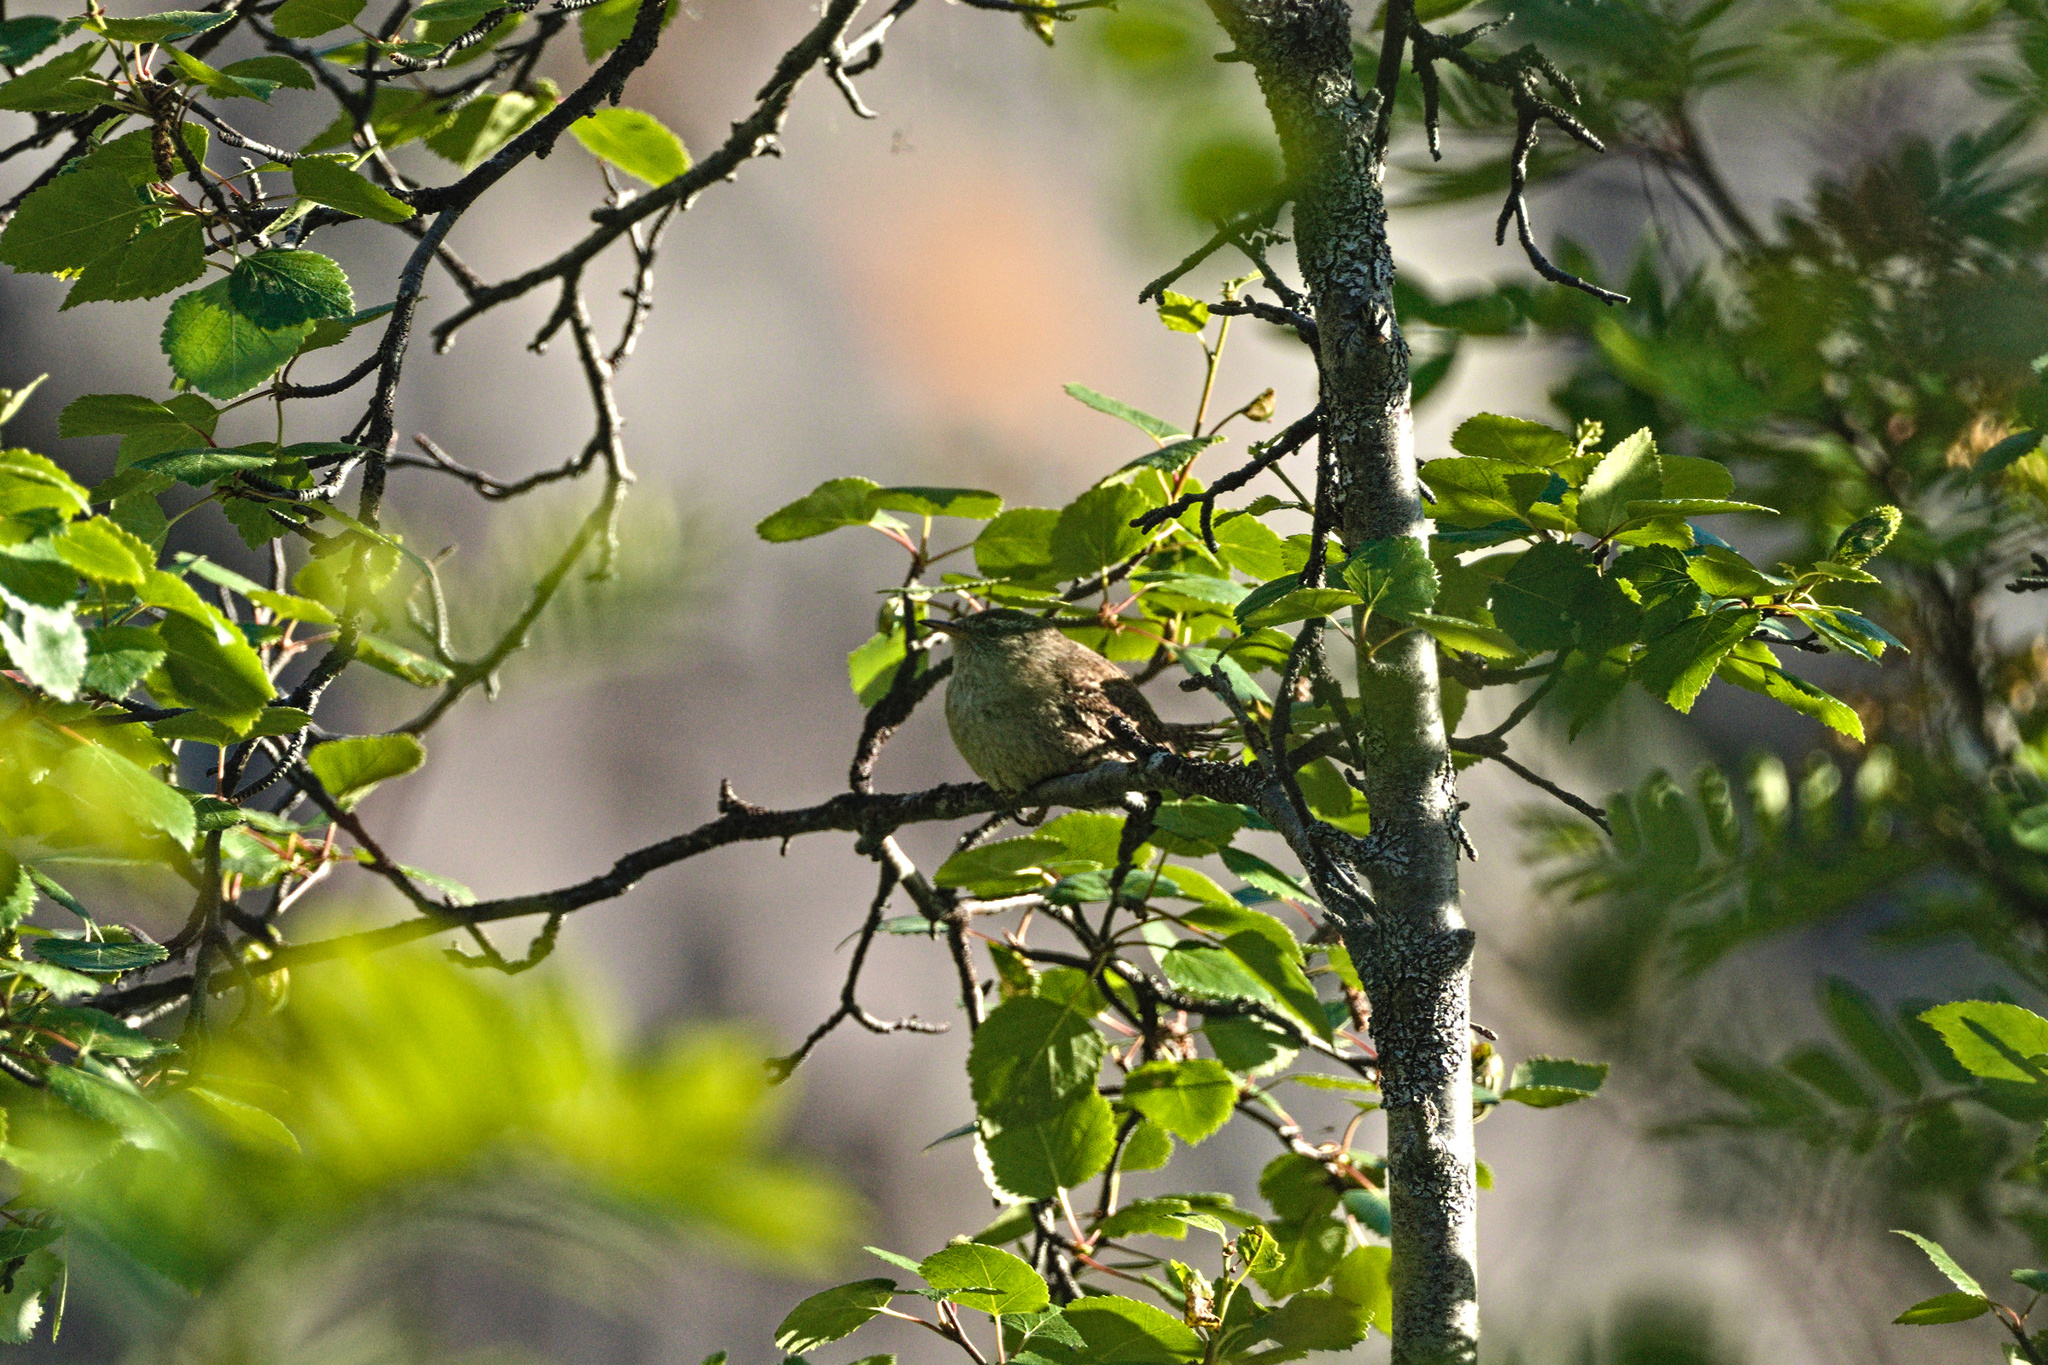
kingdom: Animalia
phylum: Chordata
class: Aves
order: Passeriformes
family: Troglodytidae
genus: Troglodytes
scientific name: Troglodytes troglodytes
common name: Eurasian wren
